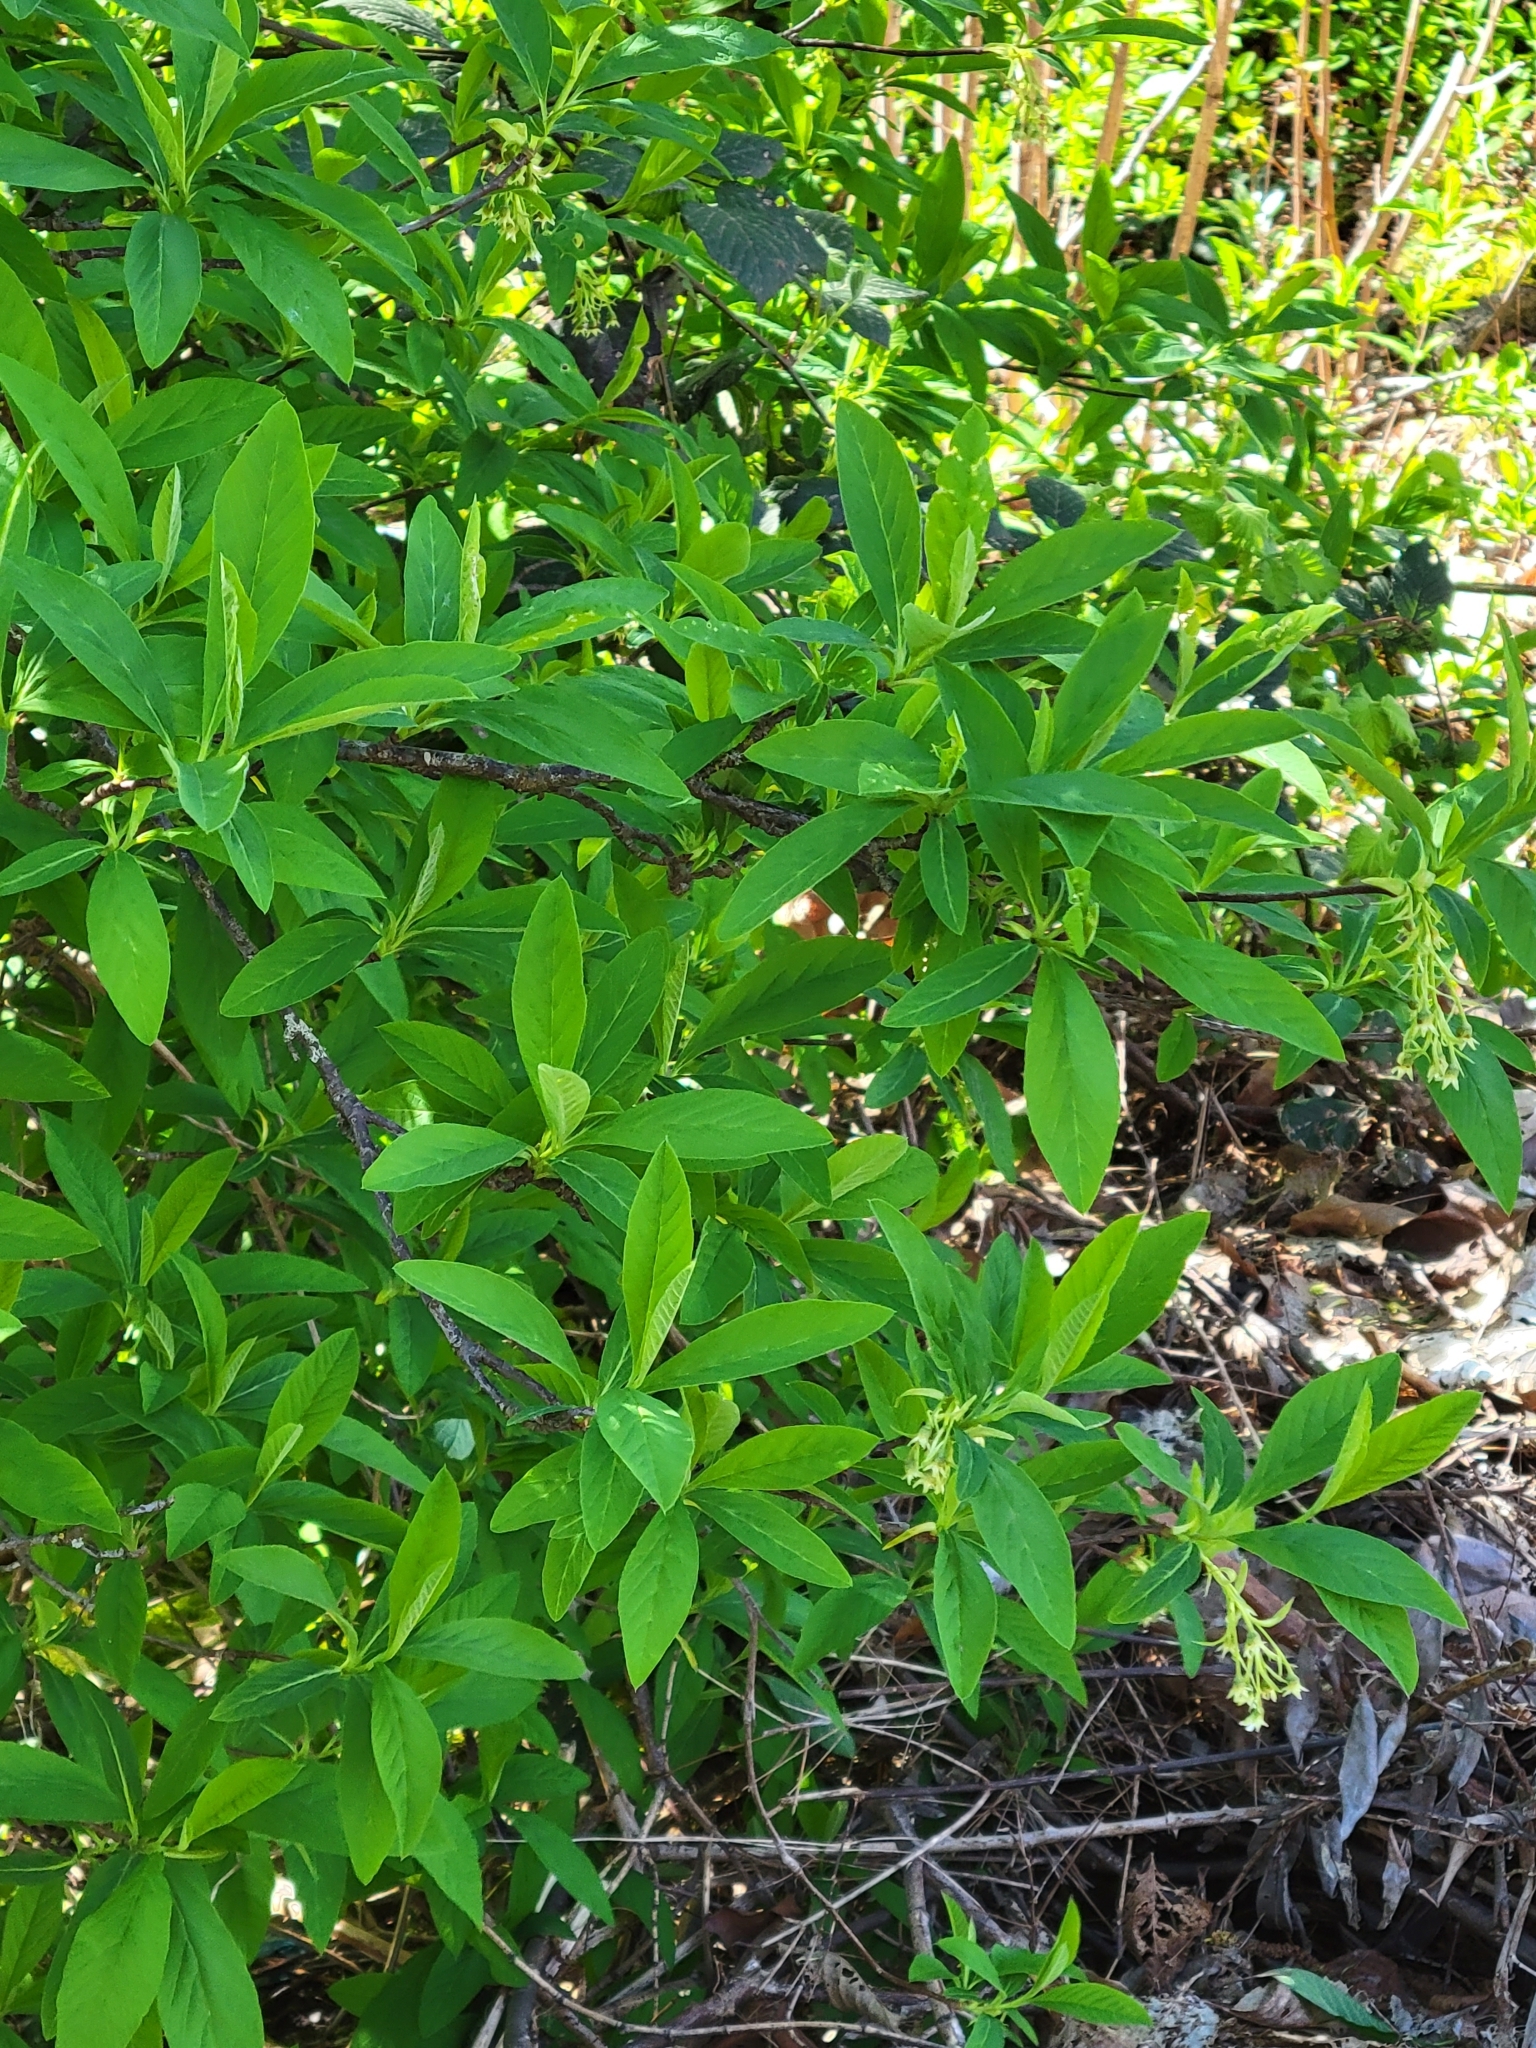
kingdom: Plantae
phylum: Tracheophyta
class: Magnoliopsida
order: Rosales
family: Rosaceae
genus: Oemleria
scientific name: Oemleria cerasiformis
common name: Osoberry
